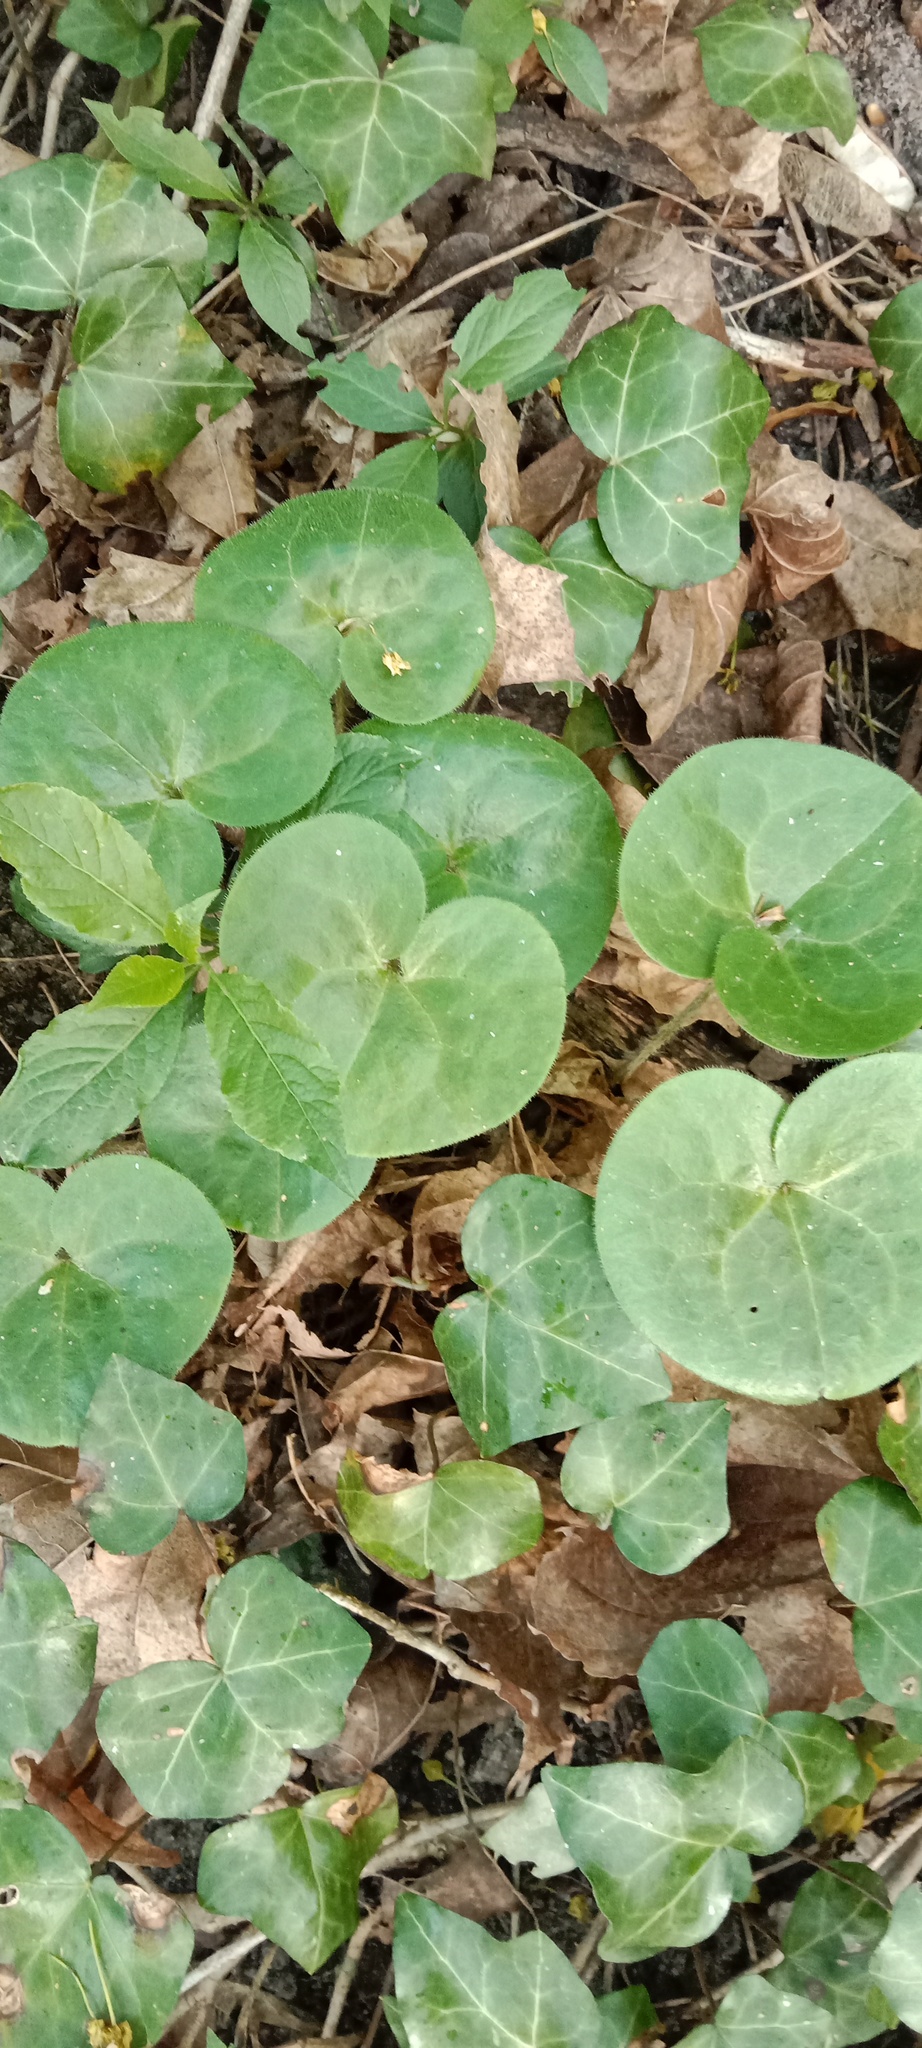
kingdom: Plantae
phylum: Tracheophyta
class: Magnoliopsida
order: Piperales
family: Aristolochiaceae
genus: Asarum
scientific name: Asarum europaeum
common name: Asarabacca
